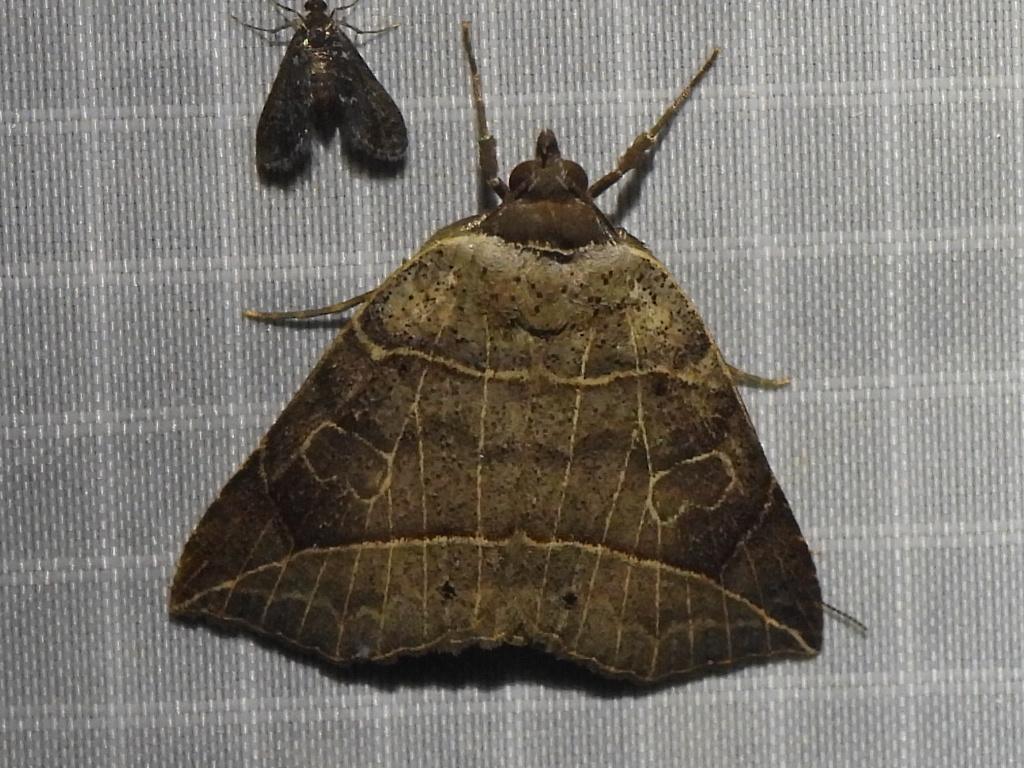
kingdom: Animalia
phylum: Arthropoda
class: Insecta
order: Lepidoptera
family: Erebidae
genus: Isogona
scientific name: Isogona tenuis
